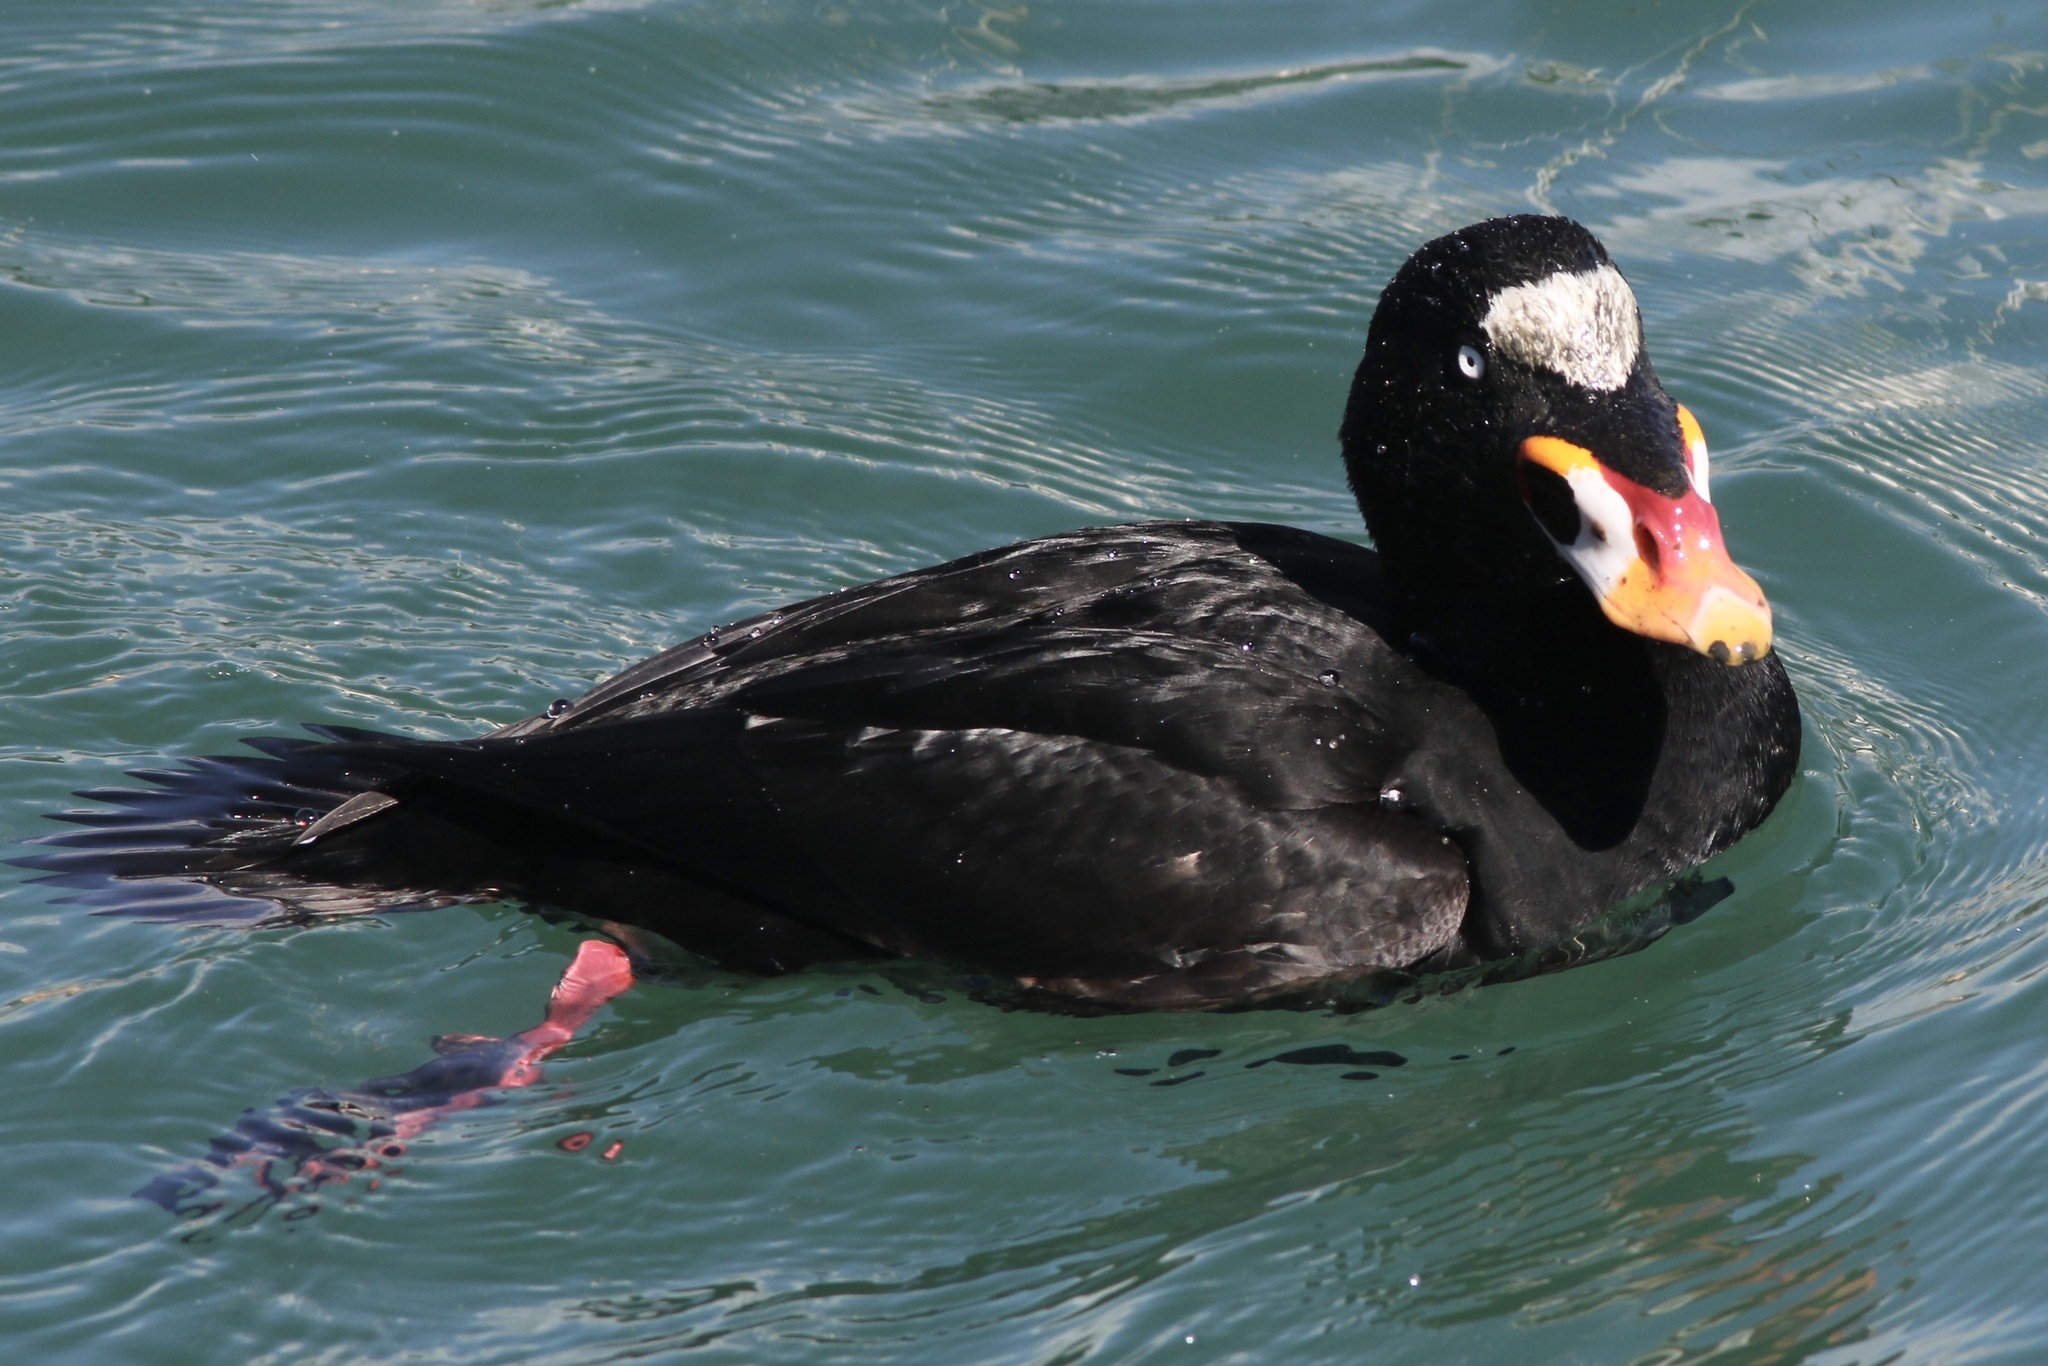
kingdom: Animalia
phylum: Chordata
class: Aves
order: Anseriformes
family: Anatidae
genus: Melanitta
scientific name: Melanitta perspicillata
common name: Surf scoter
